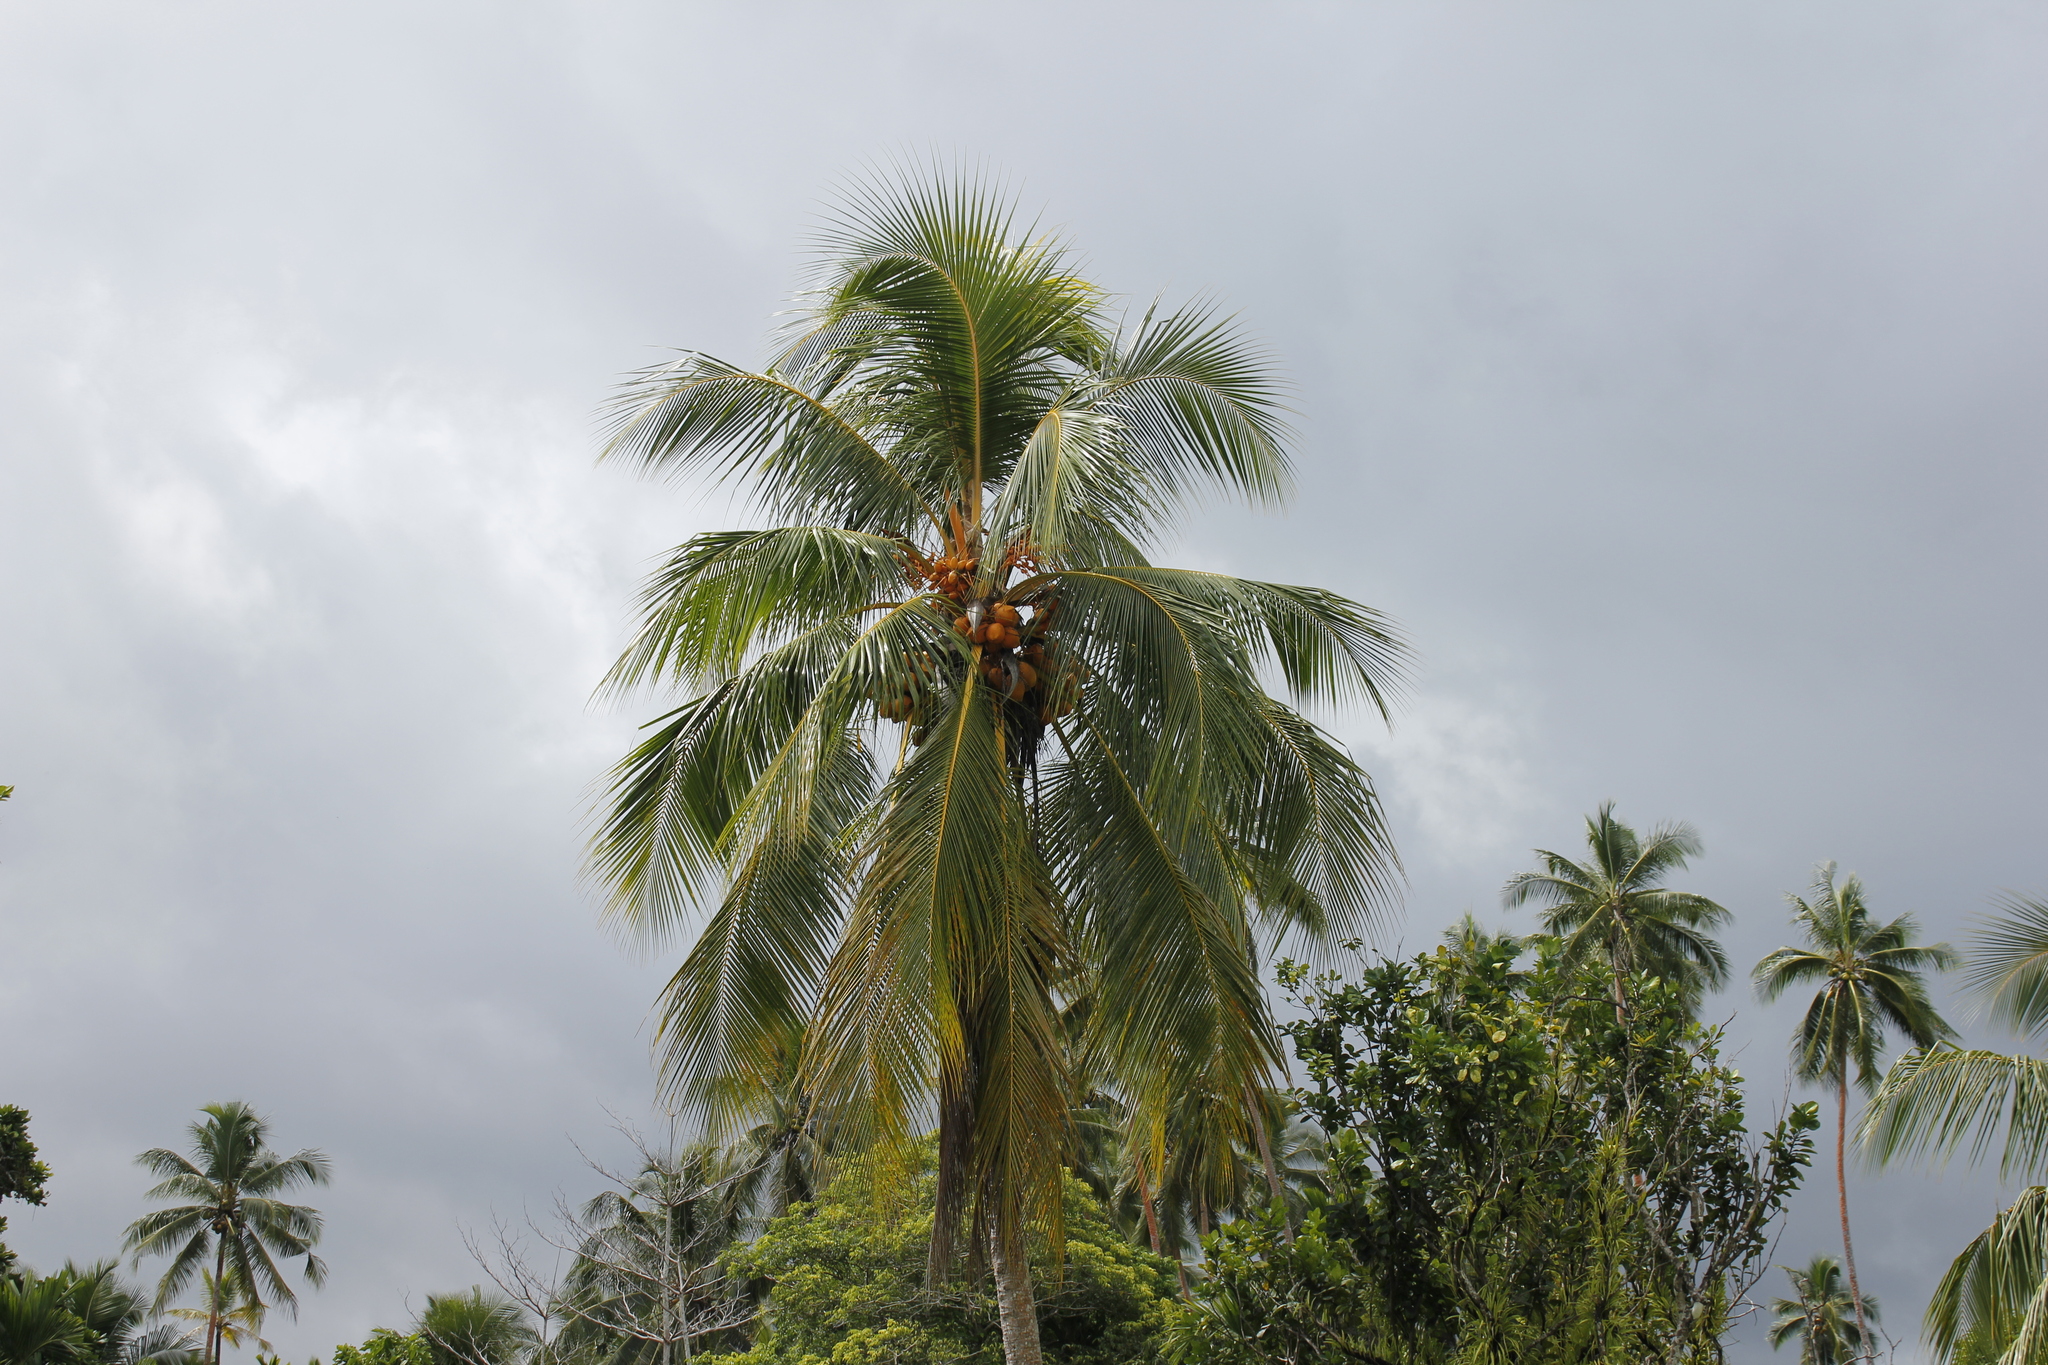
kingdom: Plantae
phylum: Tracheophyta
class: Liliopsida
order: Arecales
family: Arecaceae
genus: Cocos
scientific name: Cocos nucifera
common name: Coconut palm
